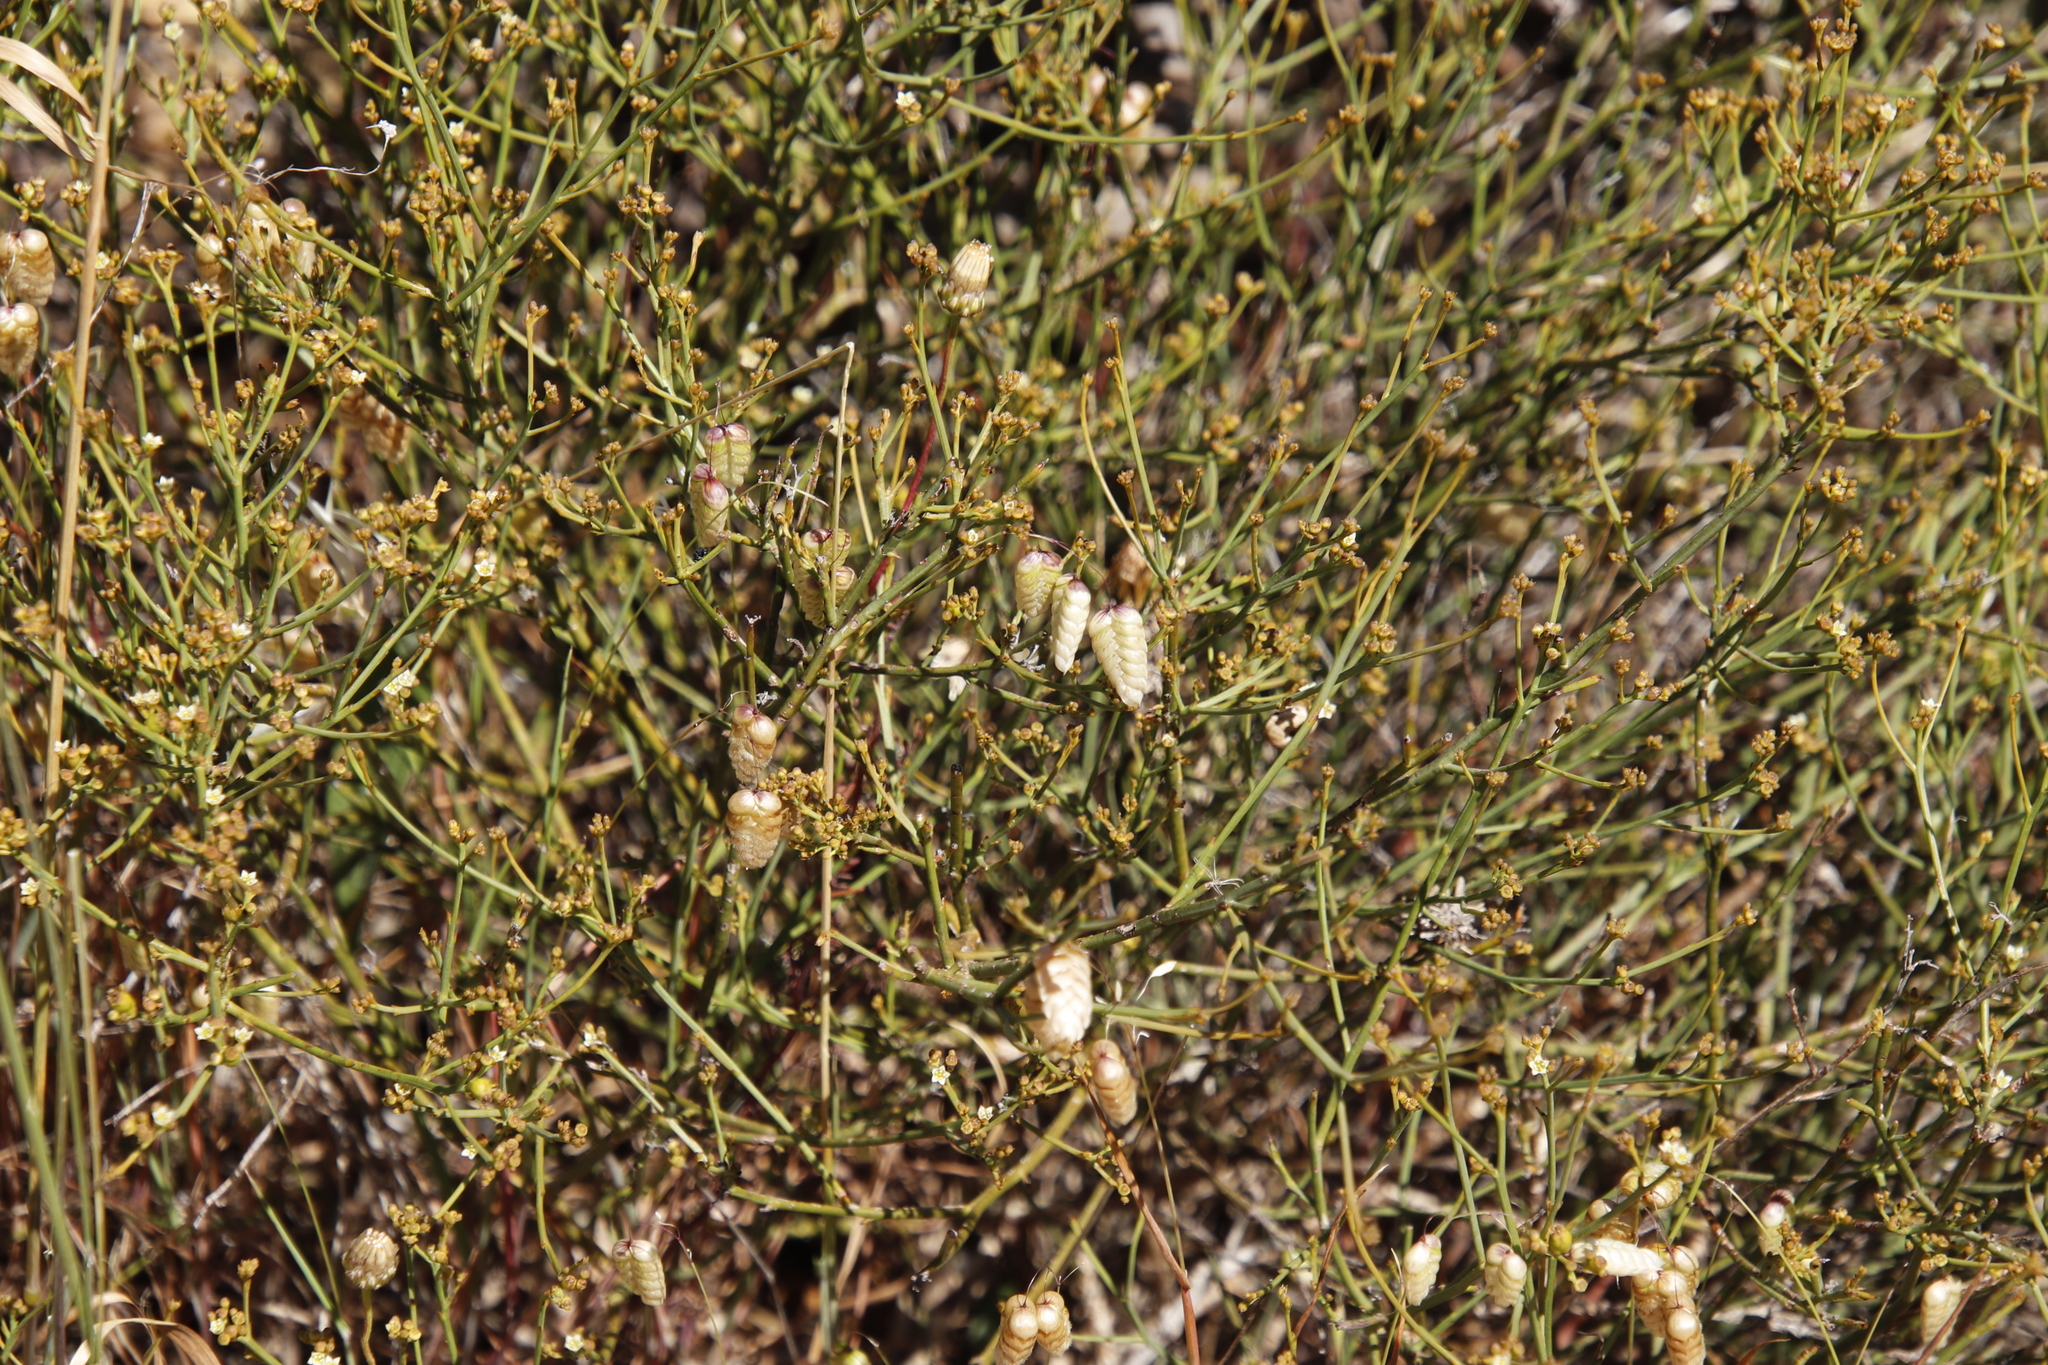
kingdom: Plantae
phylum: Tracheophyta
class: Liliopsida
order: Poales
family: Poaceae
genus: Briza
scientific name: Briza maxima
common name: Big quakinggrass
